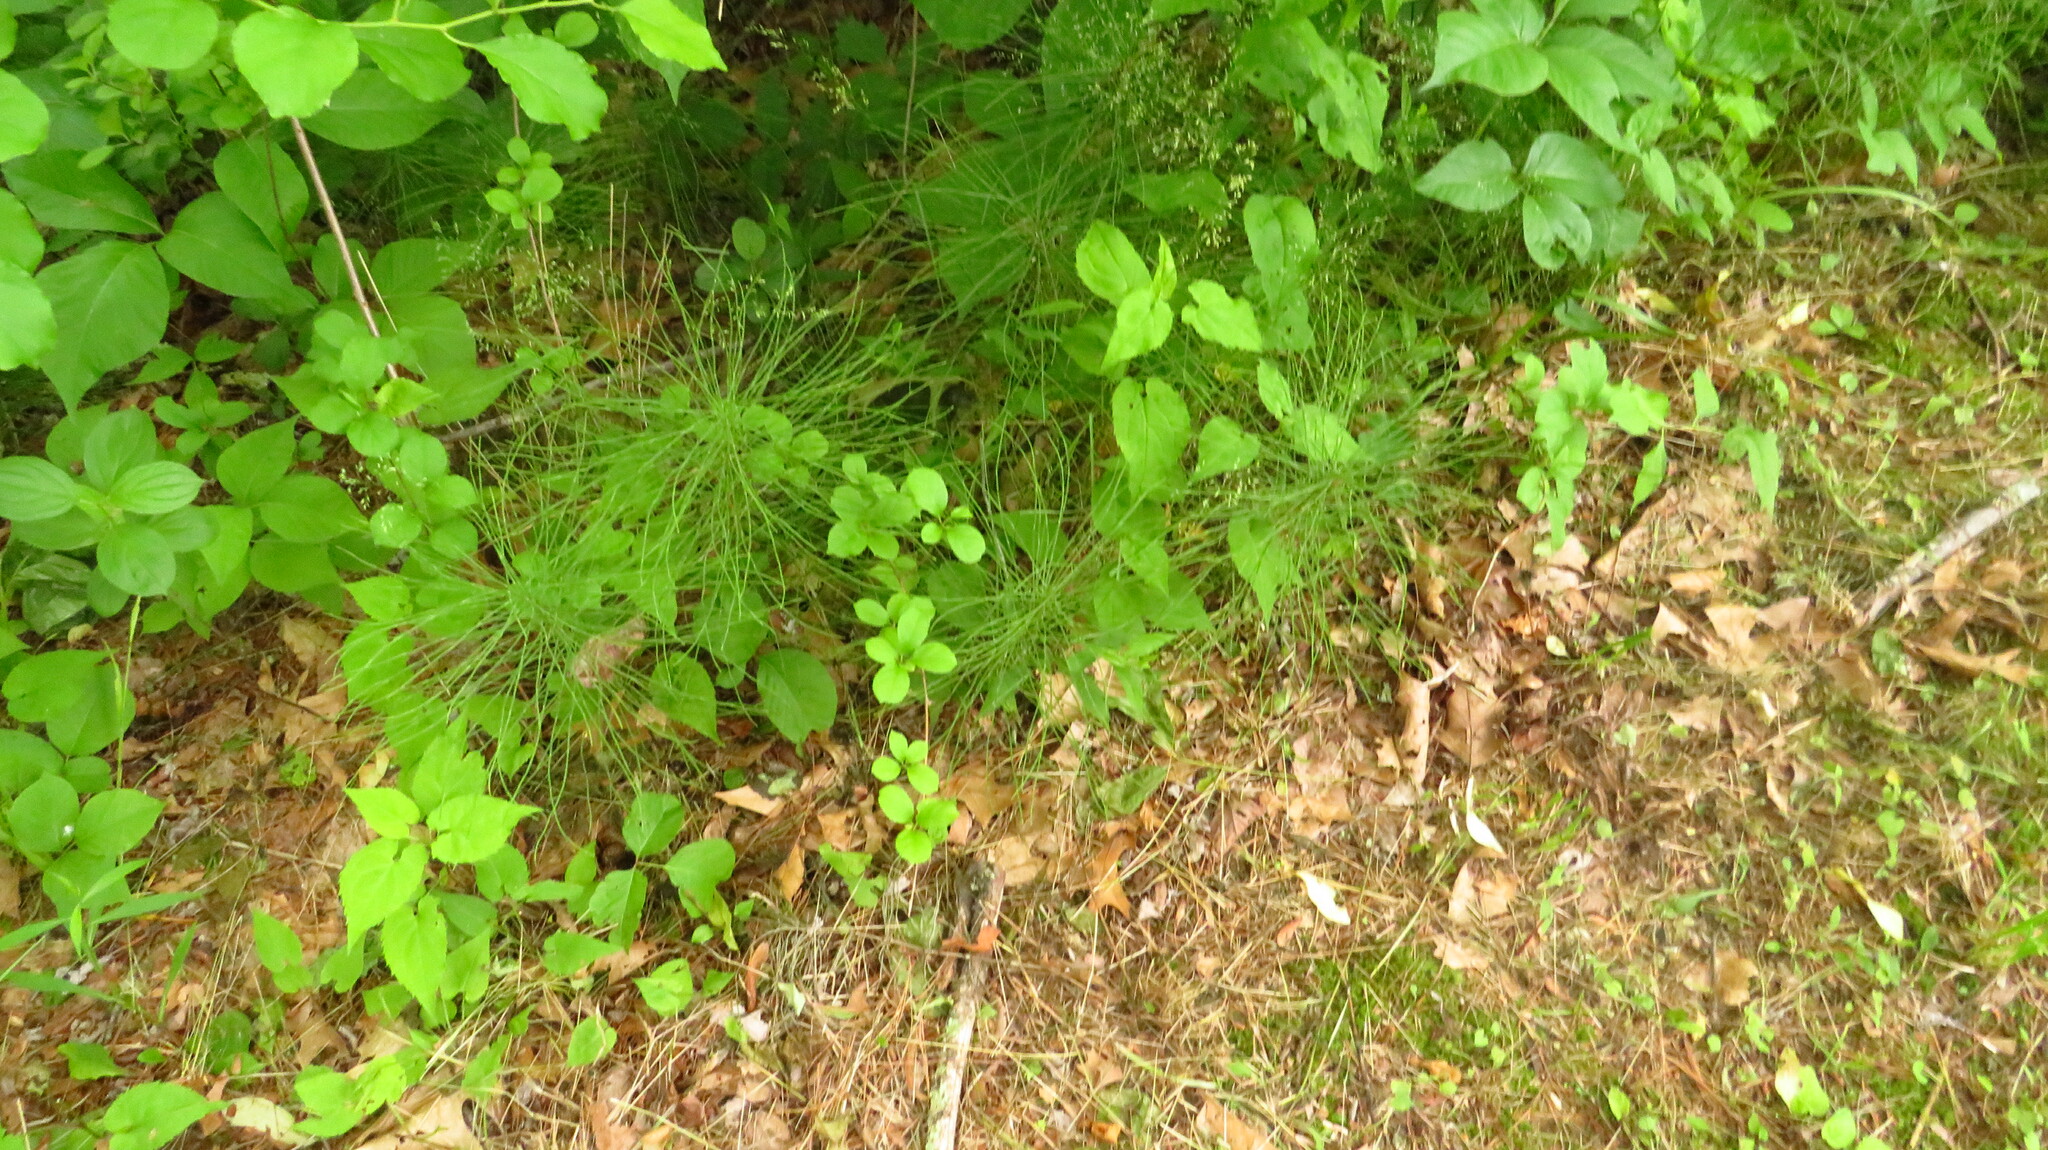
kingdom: Plantae
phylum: Tracheophyta
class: Polypodiopsida
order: Equisetales
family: Equisetaceae
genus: Equisetum
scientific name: Equisetum pratense
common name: Meadow horsetail
